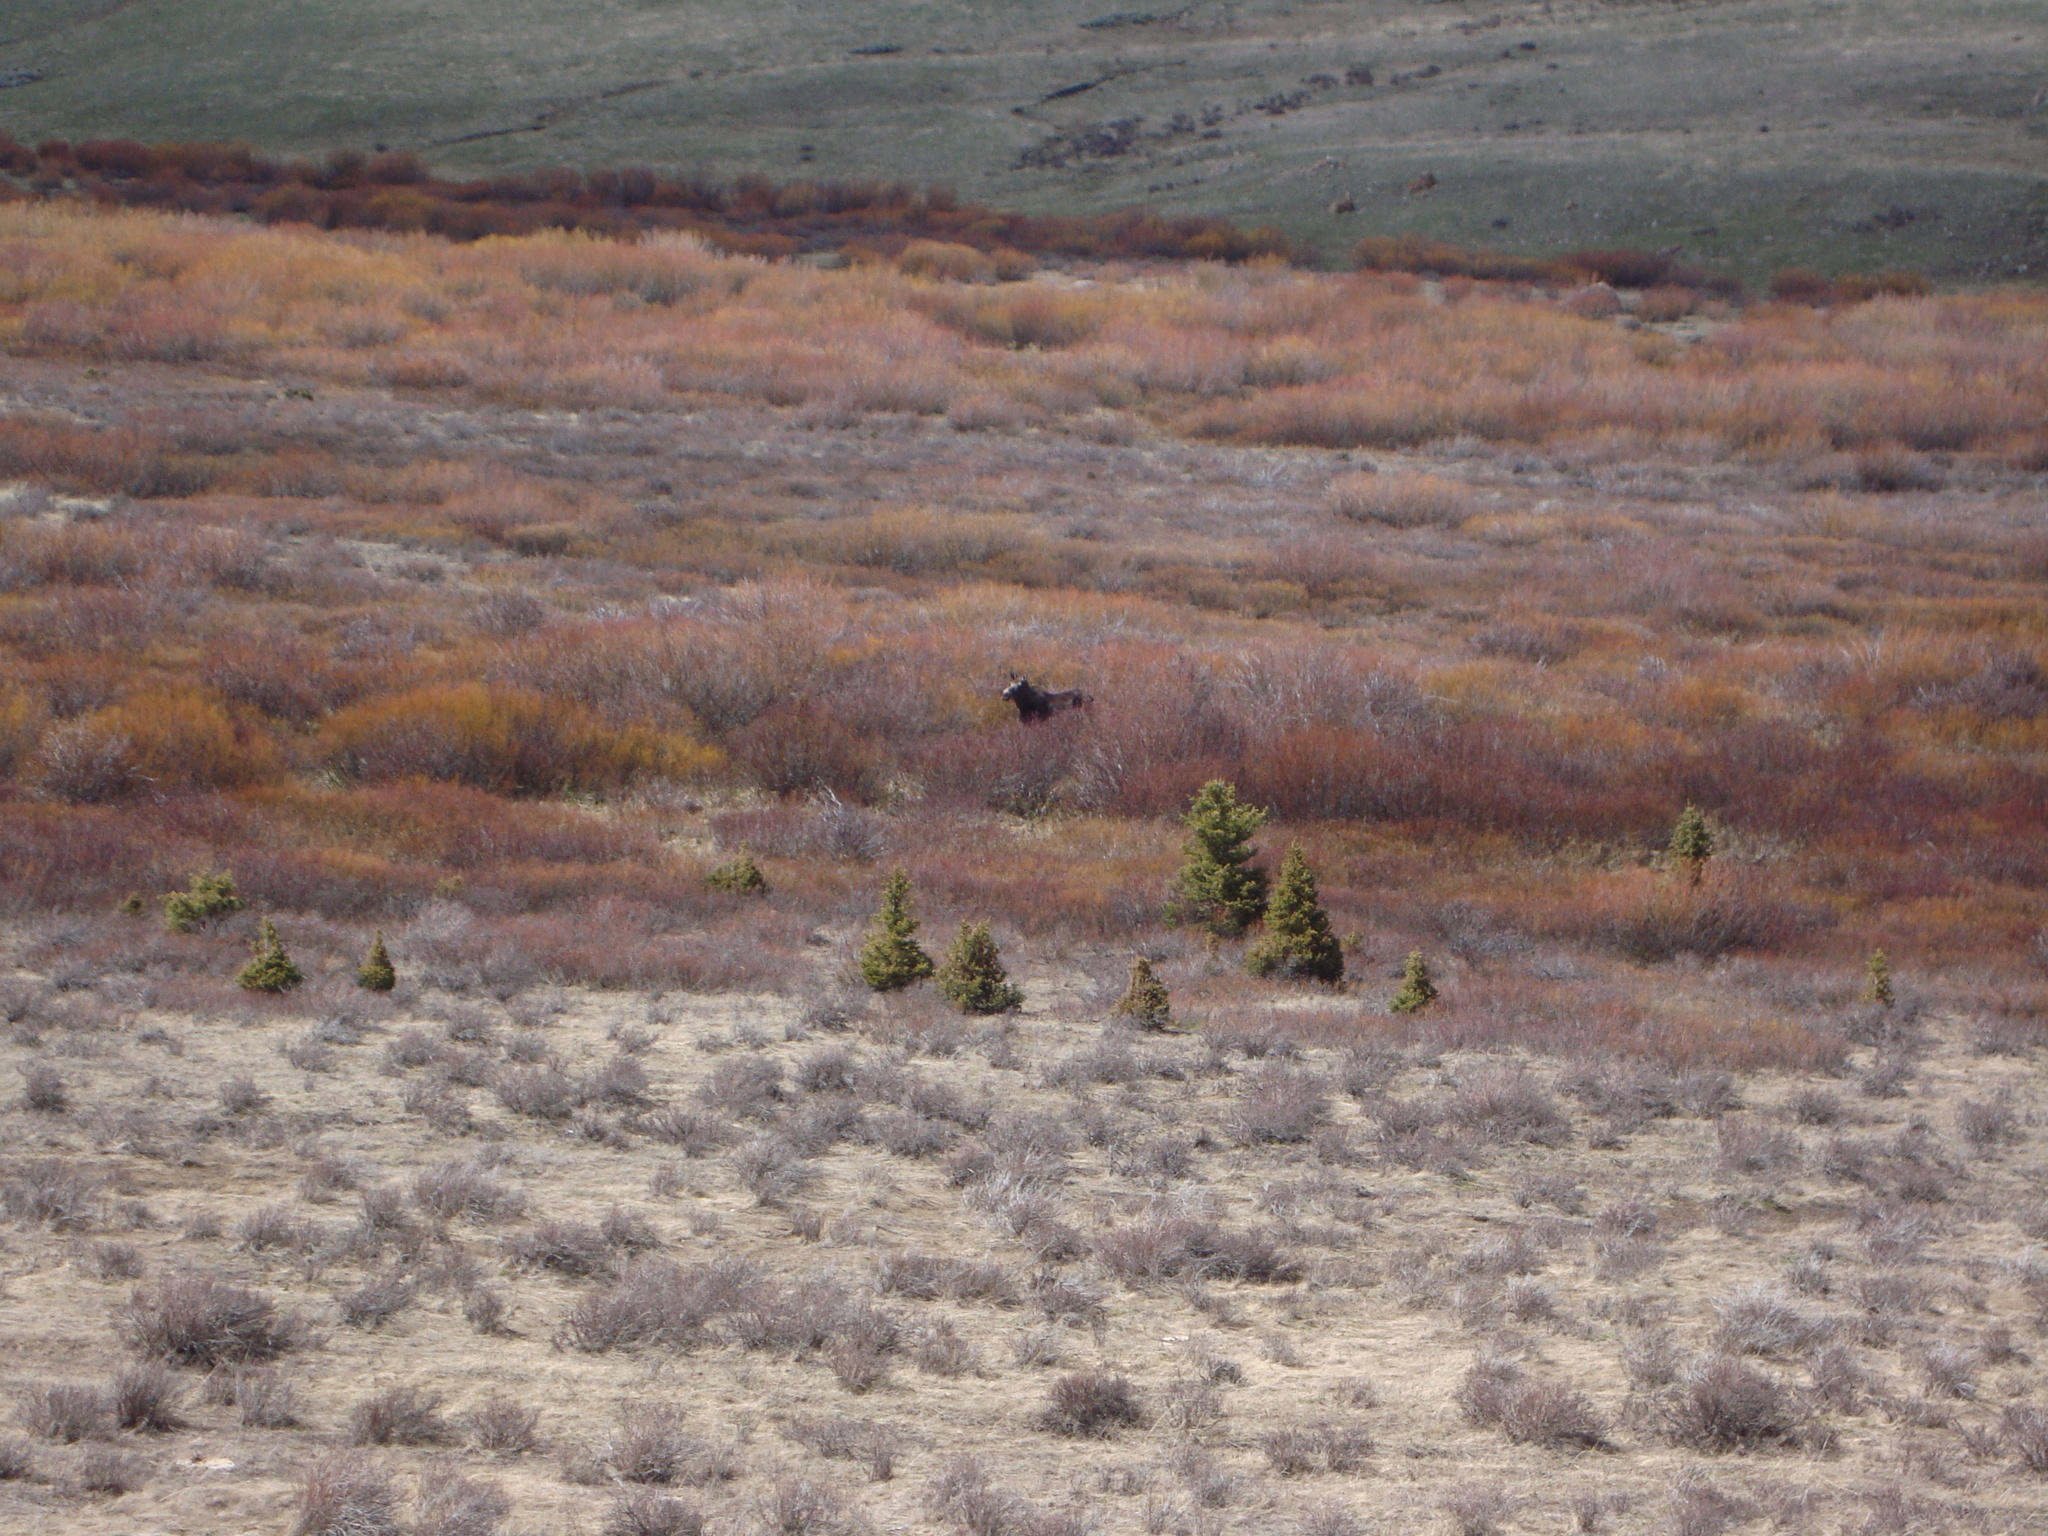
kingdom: Animalia
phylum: Chordata
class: Mammalia
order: Artiodactyla
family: Cervidae
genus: Alces
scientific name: Alces alces
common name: Moose
